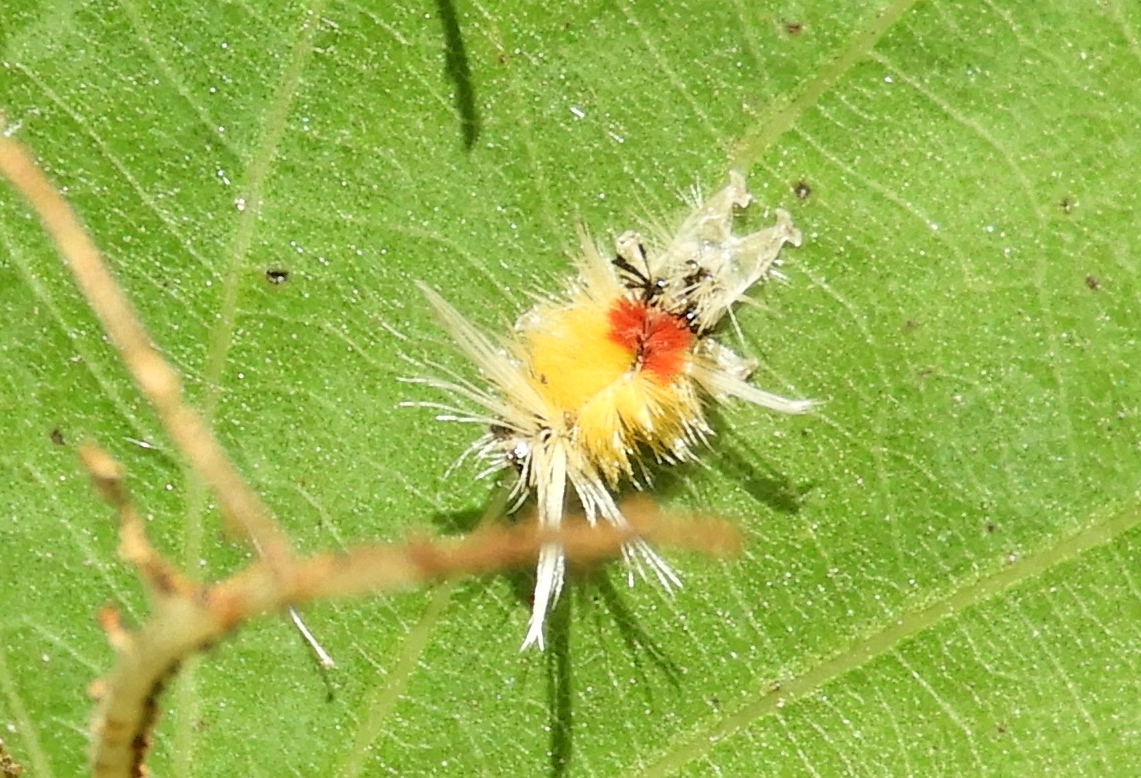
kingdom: Animalia
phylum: Arthropoda
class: Insecta
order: Lepidoptera
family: Erebidae
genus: Lophocampa
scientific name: Lophocampa annulosa
